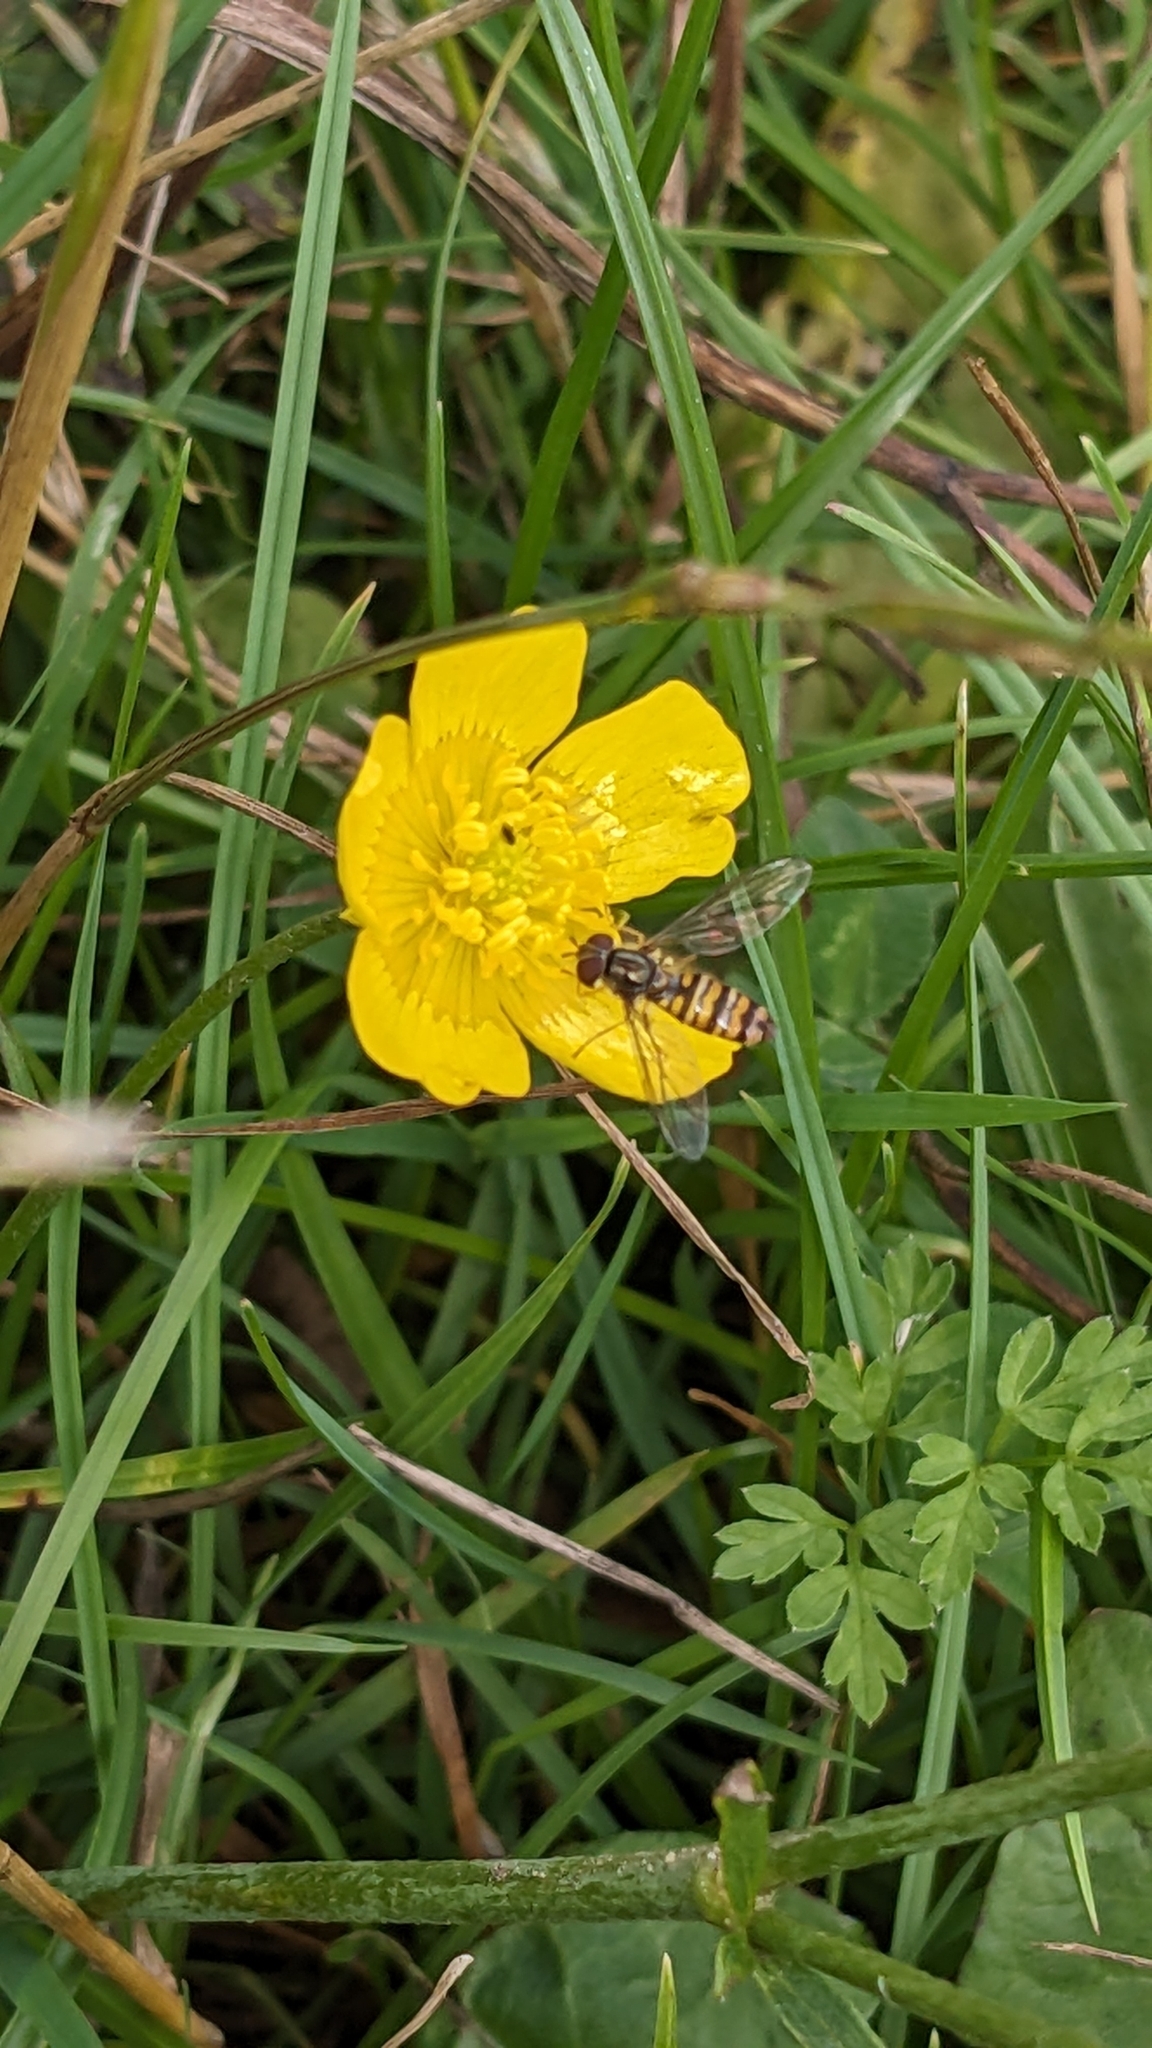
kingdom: Animalia
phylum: Arthropoda
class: Insecta
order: Diptera
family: Syrphidae
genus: Episyrphus
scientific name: Episyrphus balteatus
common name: Marmalade hoverfly
